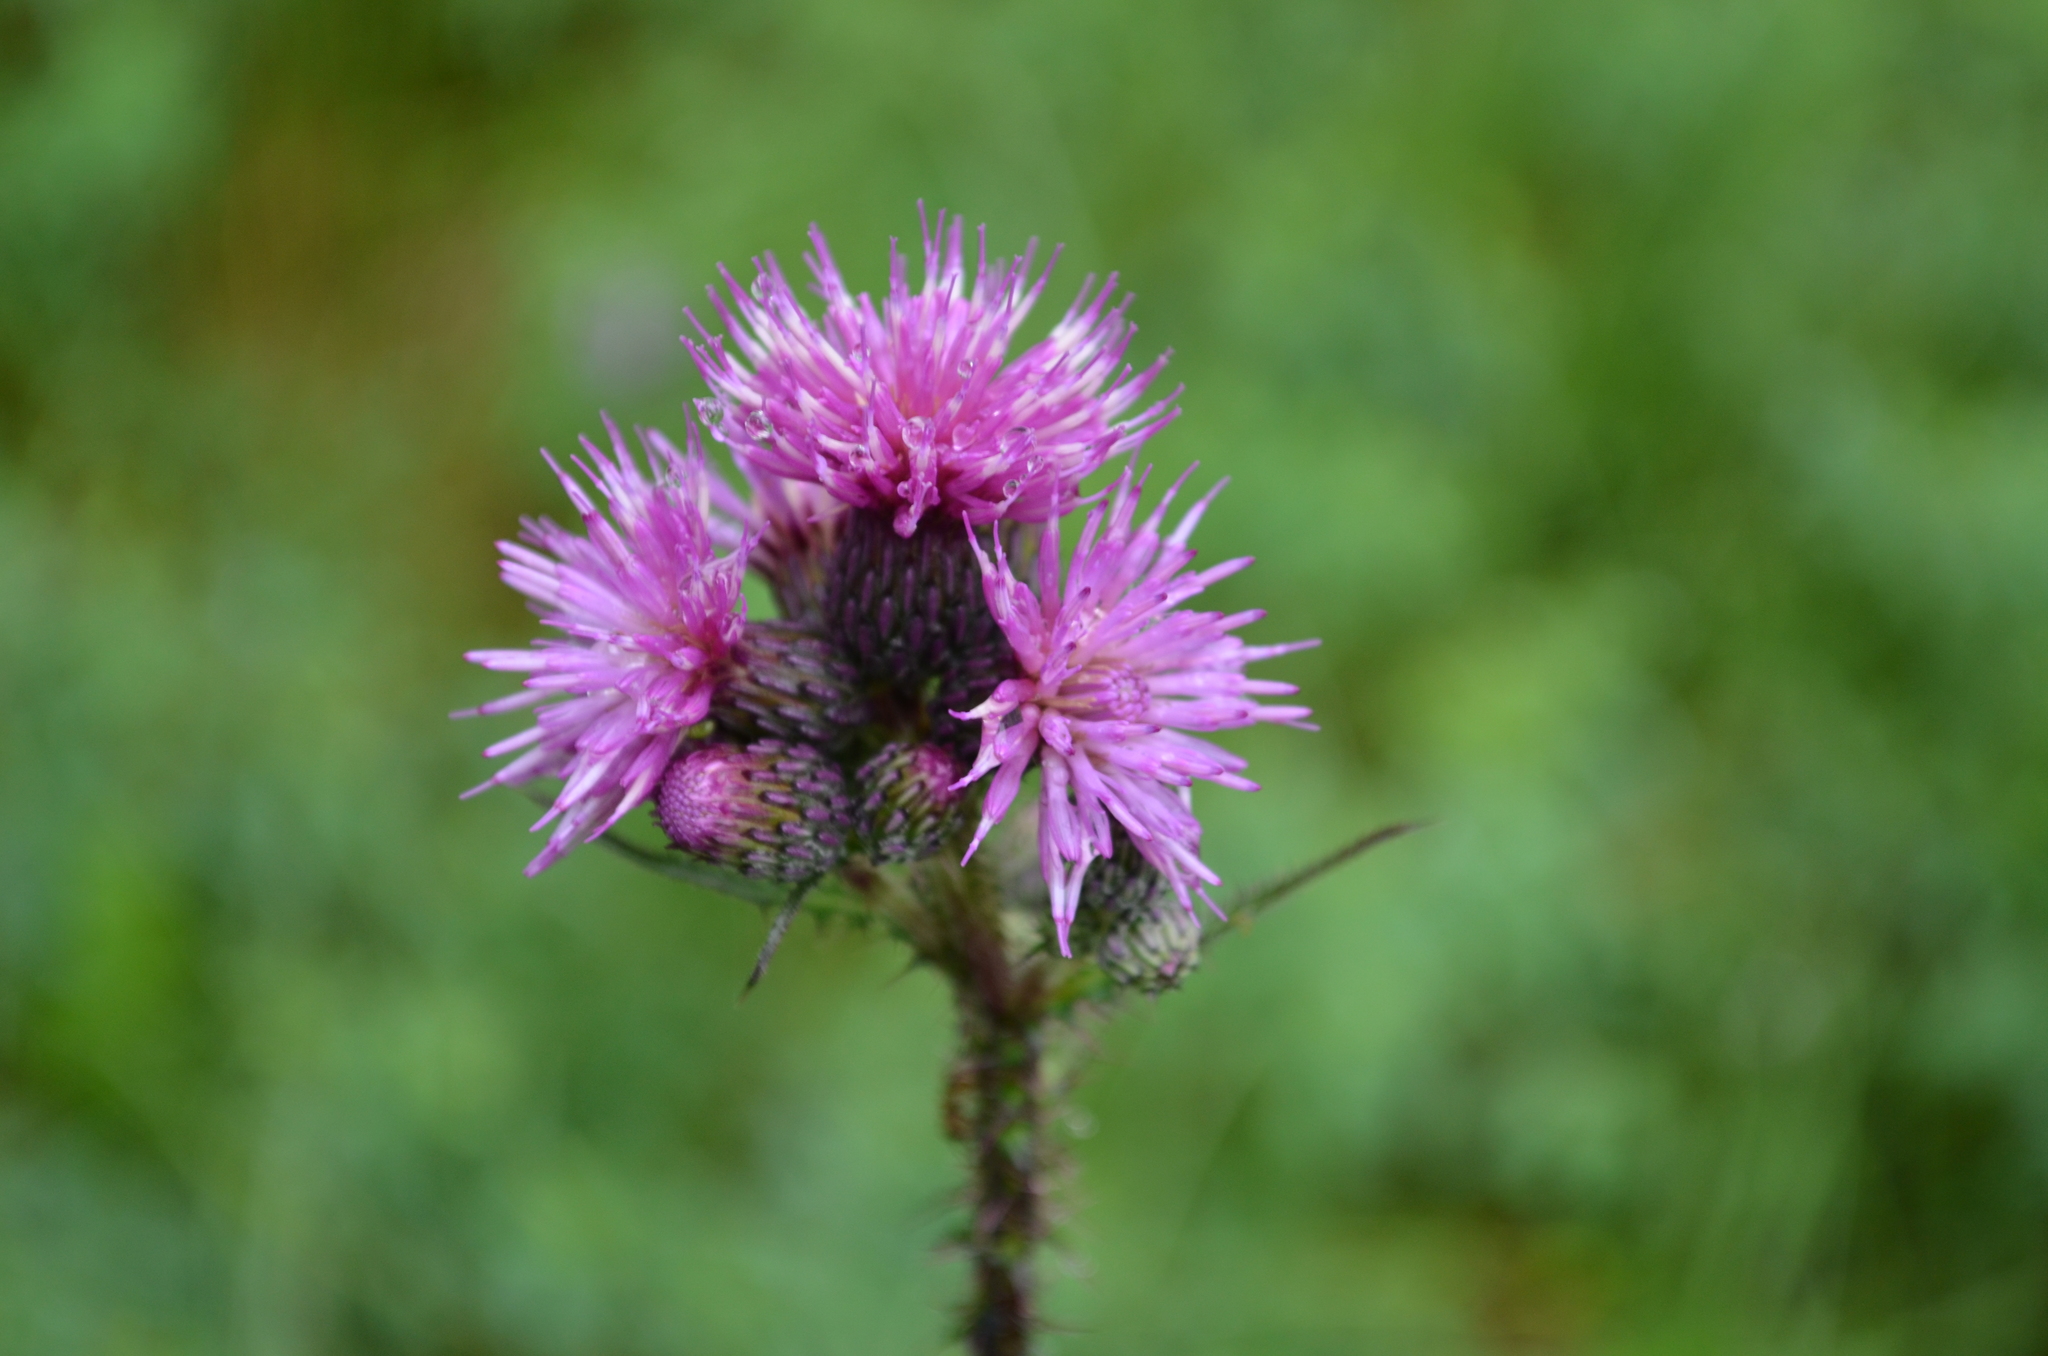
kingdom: Plantae
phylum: Tracheophyta
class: Magnoliopsida
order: Asterales
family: Asteraceae
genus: Cirsium
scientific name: Cirsium palustre
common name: Marsh thistle
